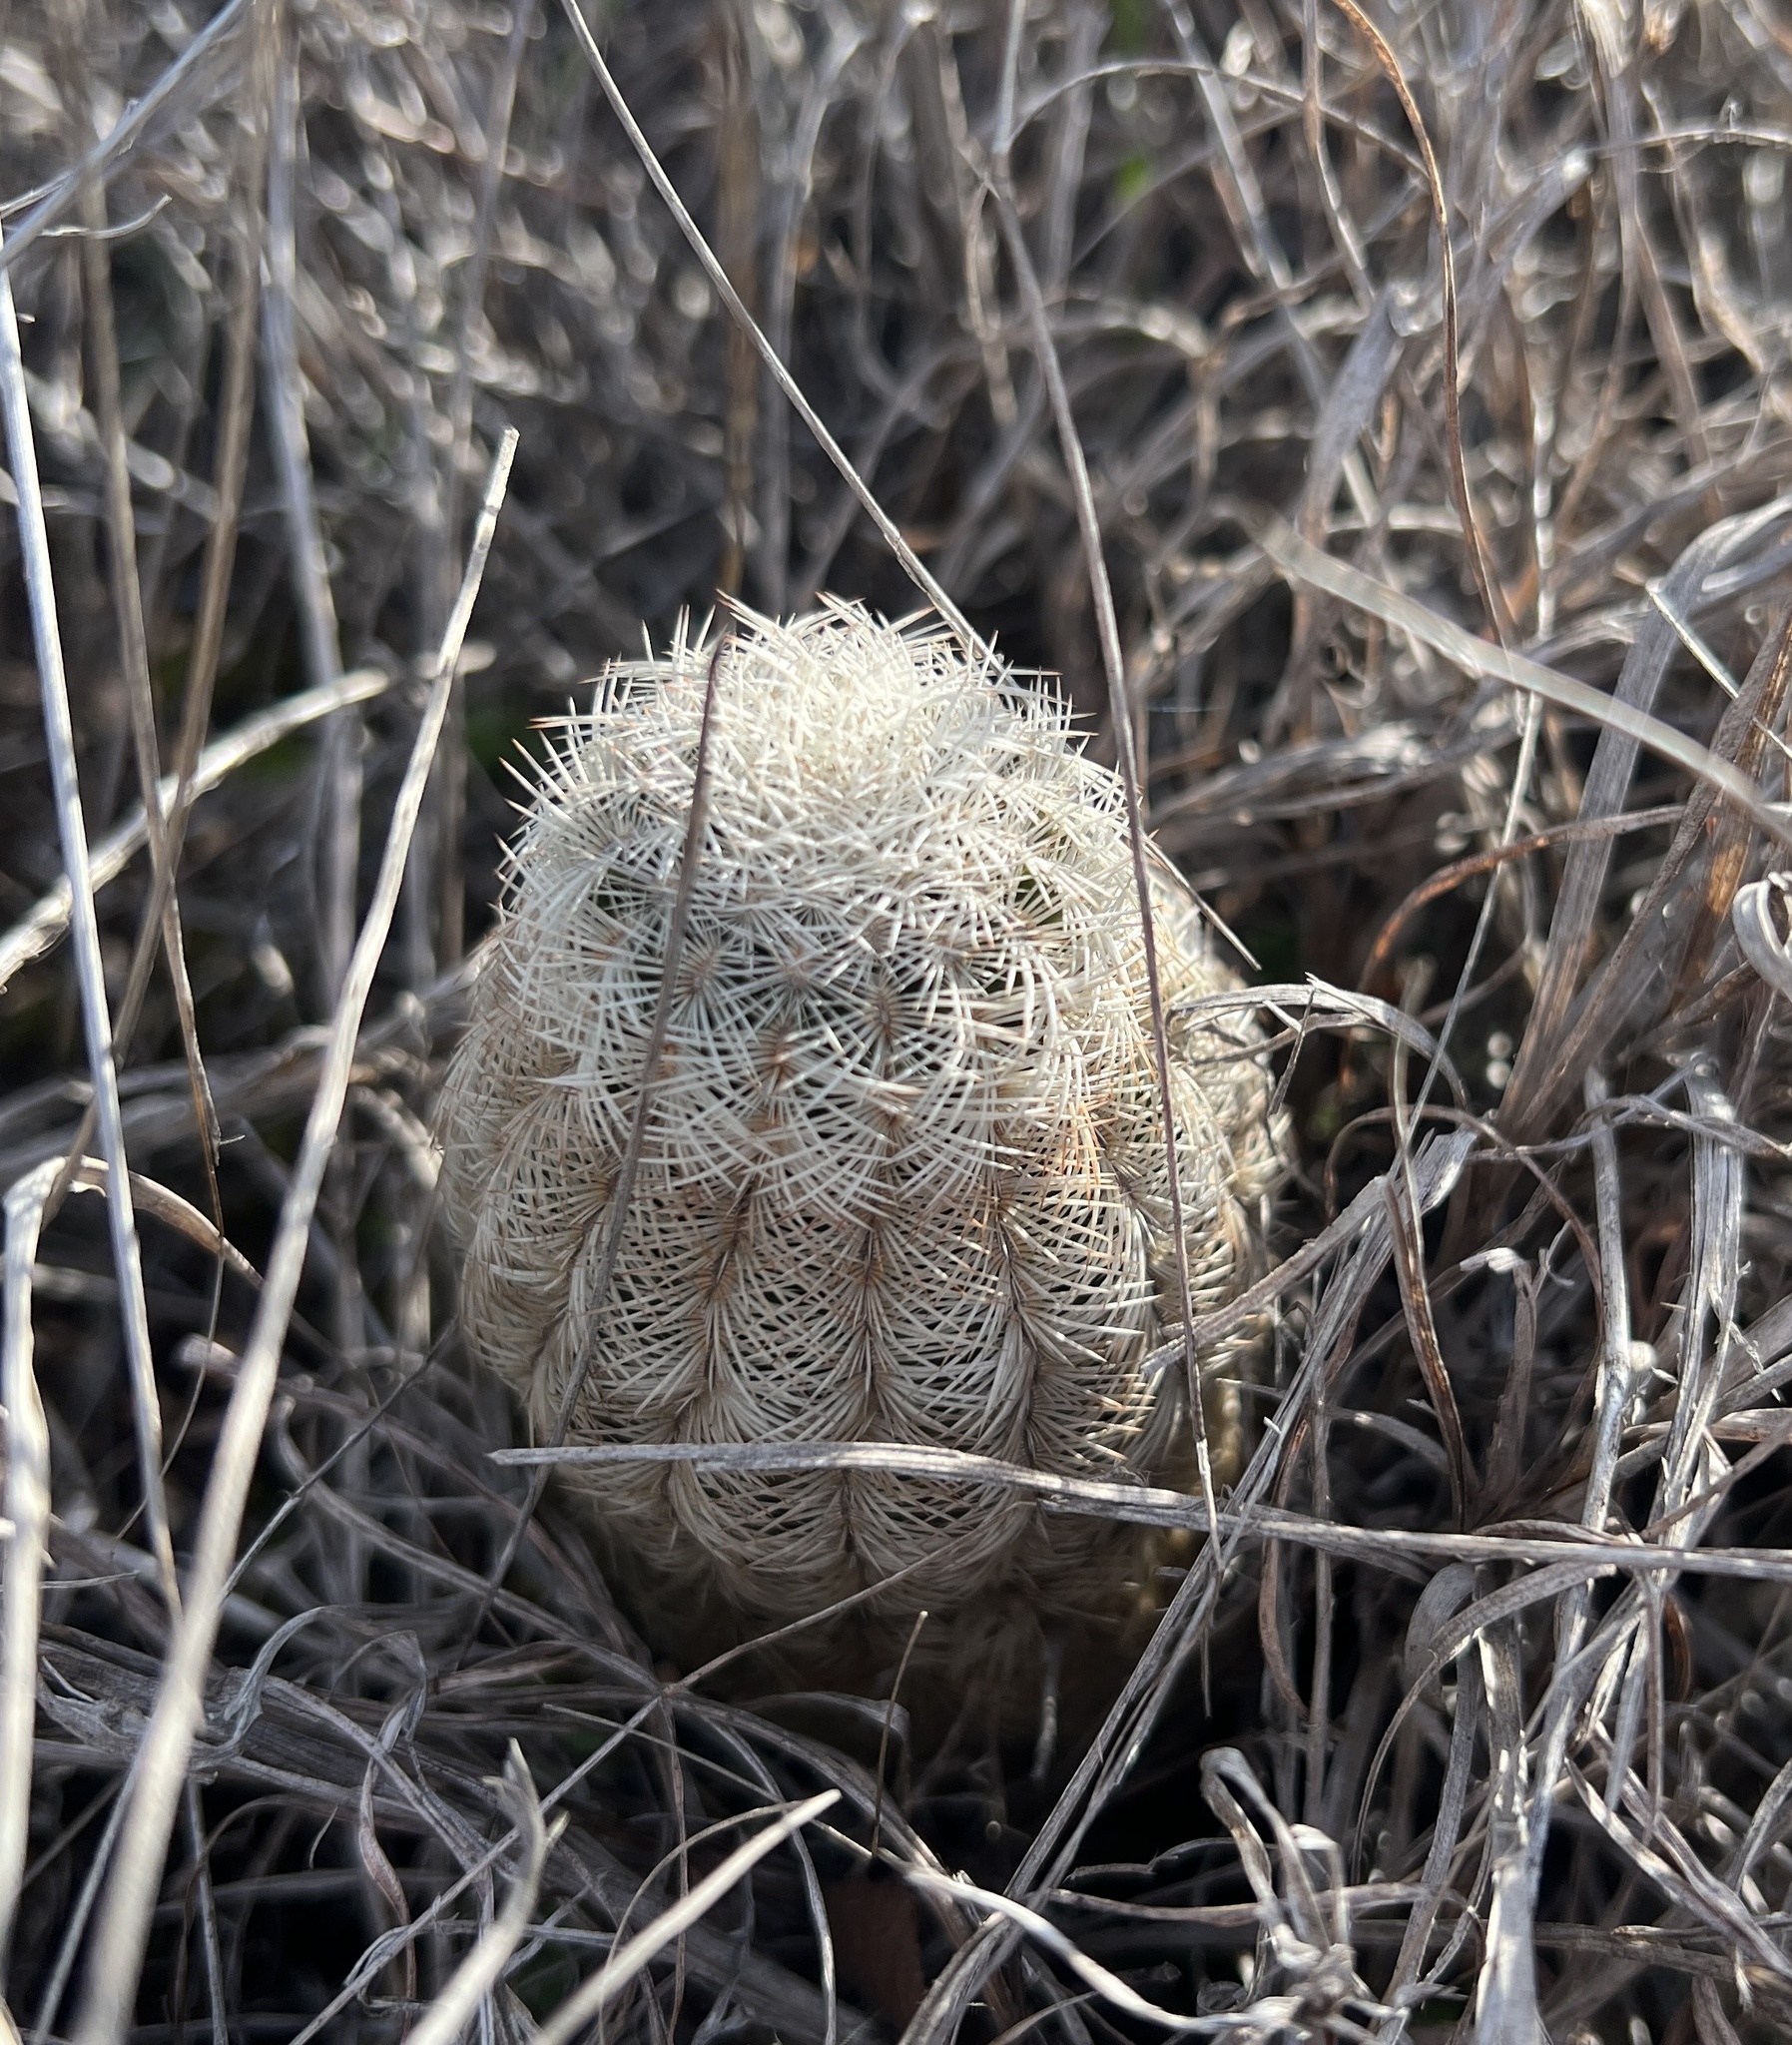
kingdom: Plantae
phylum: Tracheophyta
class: Magnoliopsida
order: Caryophyllales
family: Cactaceae
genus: Echinocereus
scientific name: Echinocereus reichenbachii
